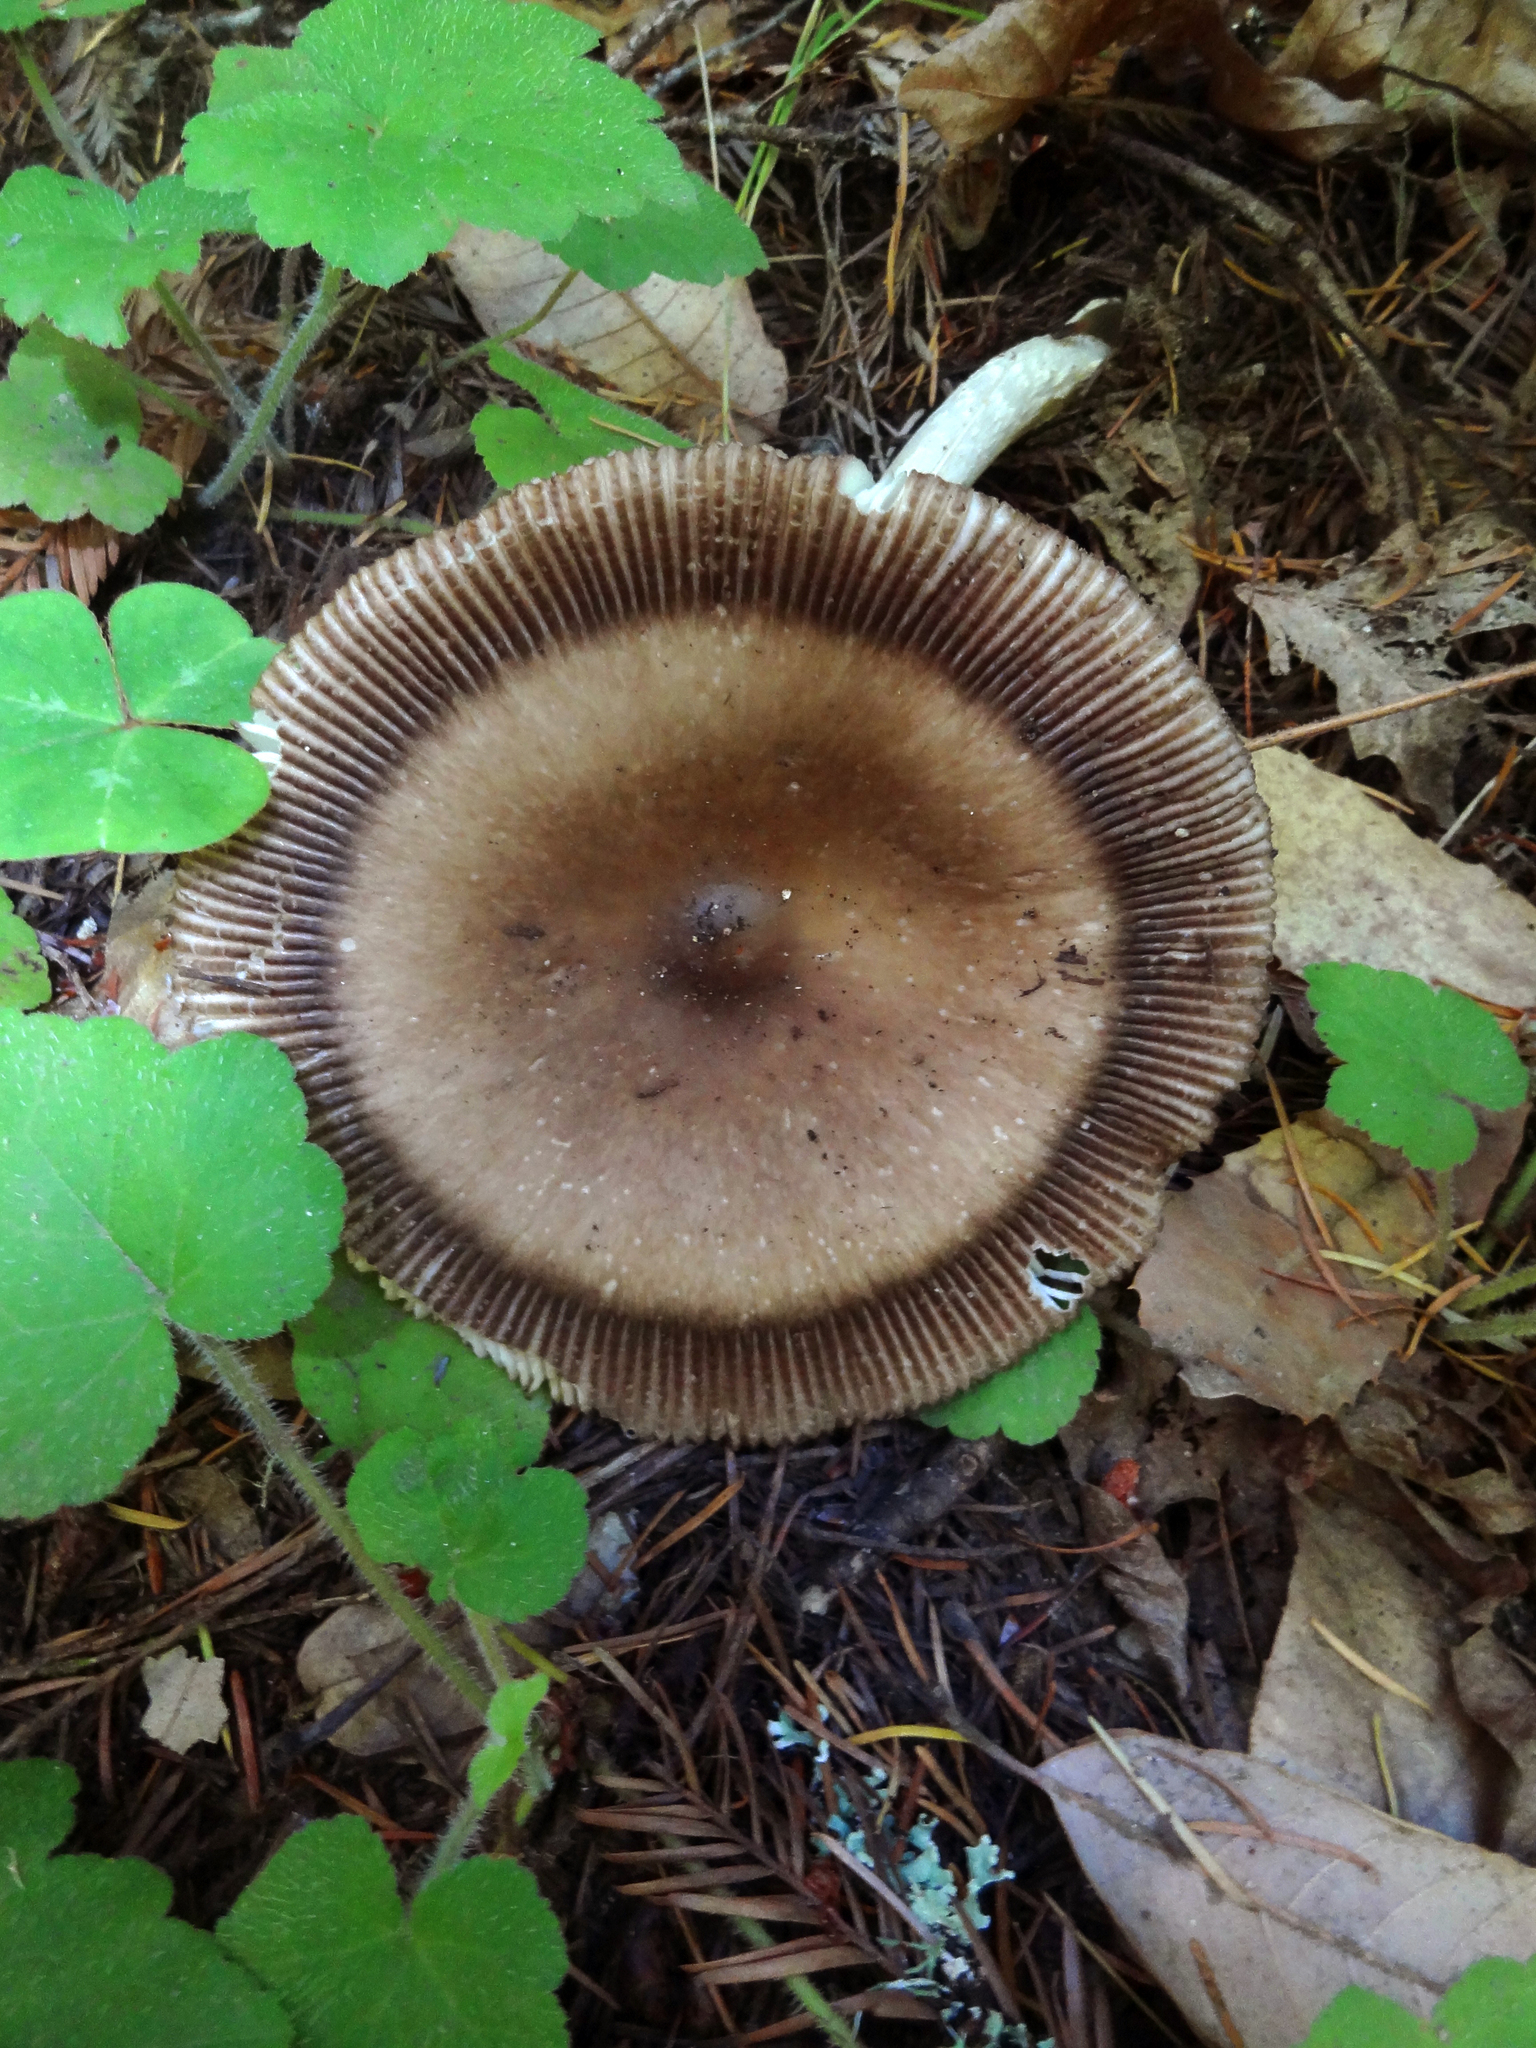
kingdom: Fungi
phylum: Basidiomycota
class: Agaricomycetes
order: Agaricales
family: Amanitaceae
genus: Amanita
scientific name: Amanita pachycolea
